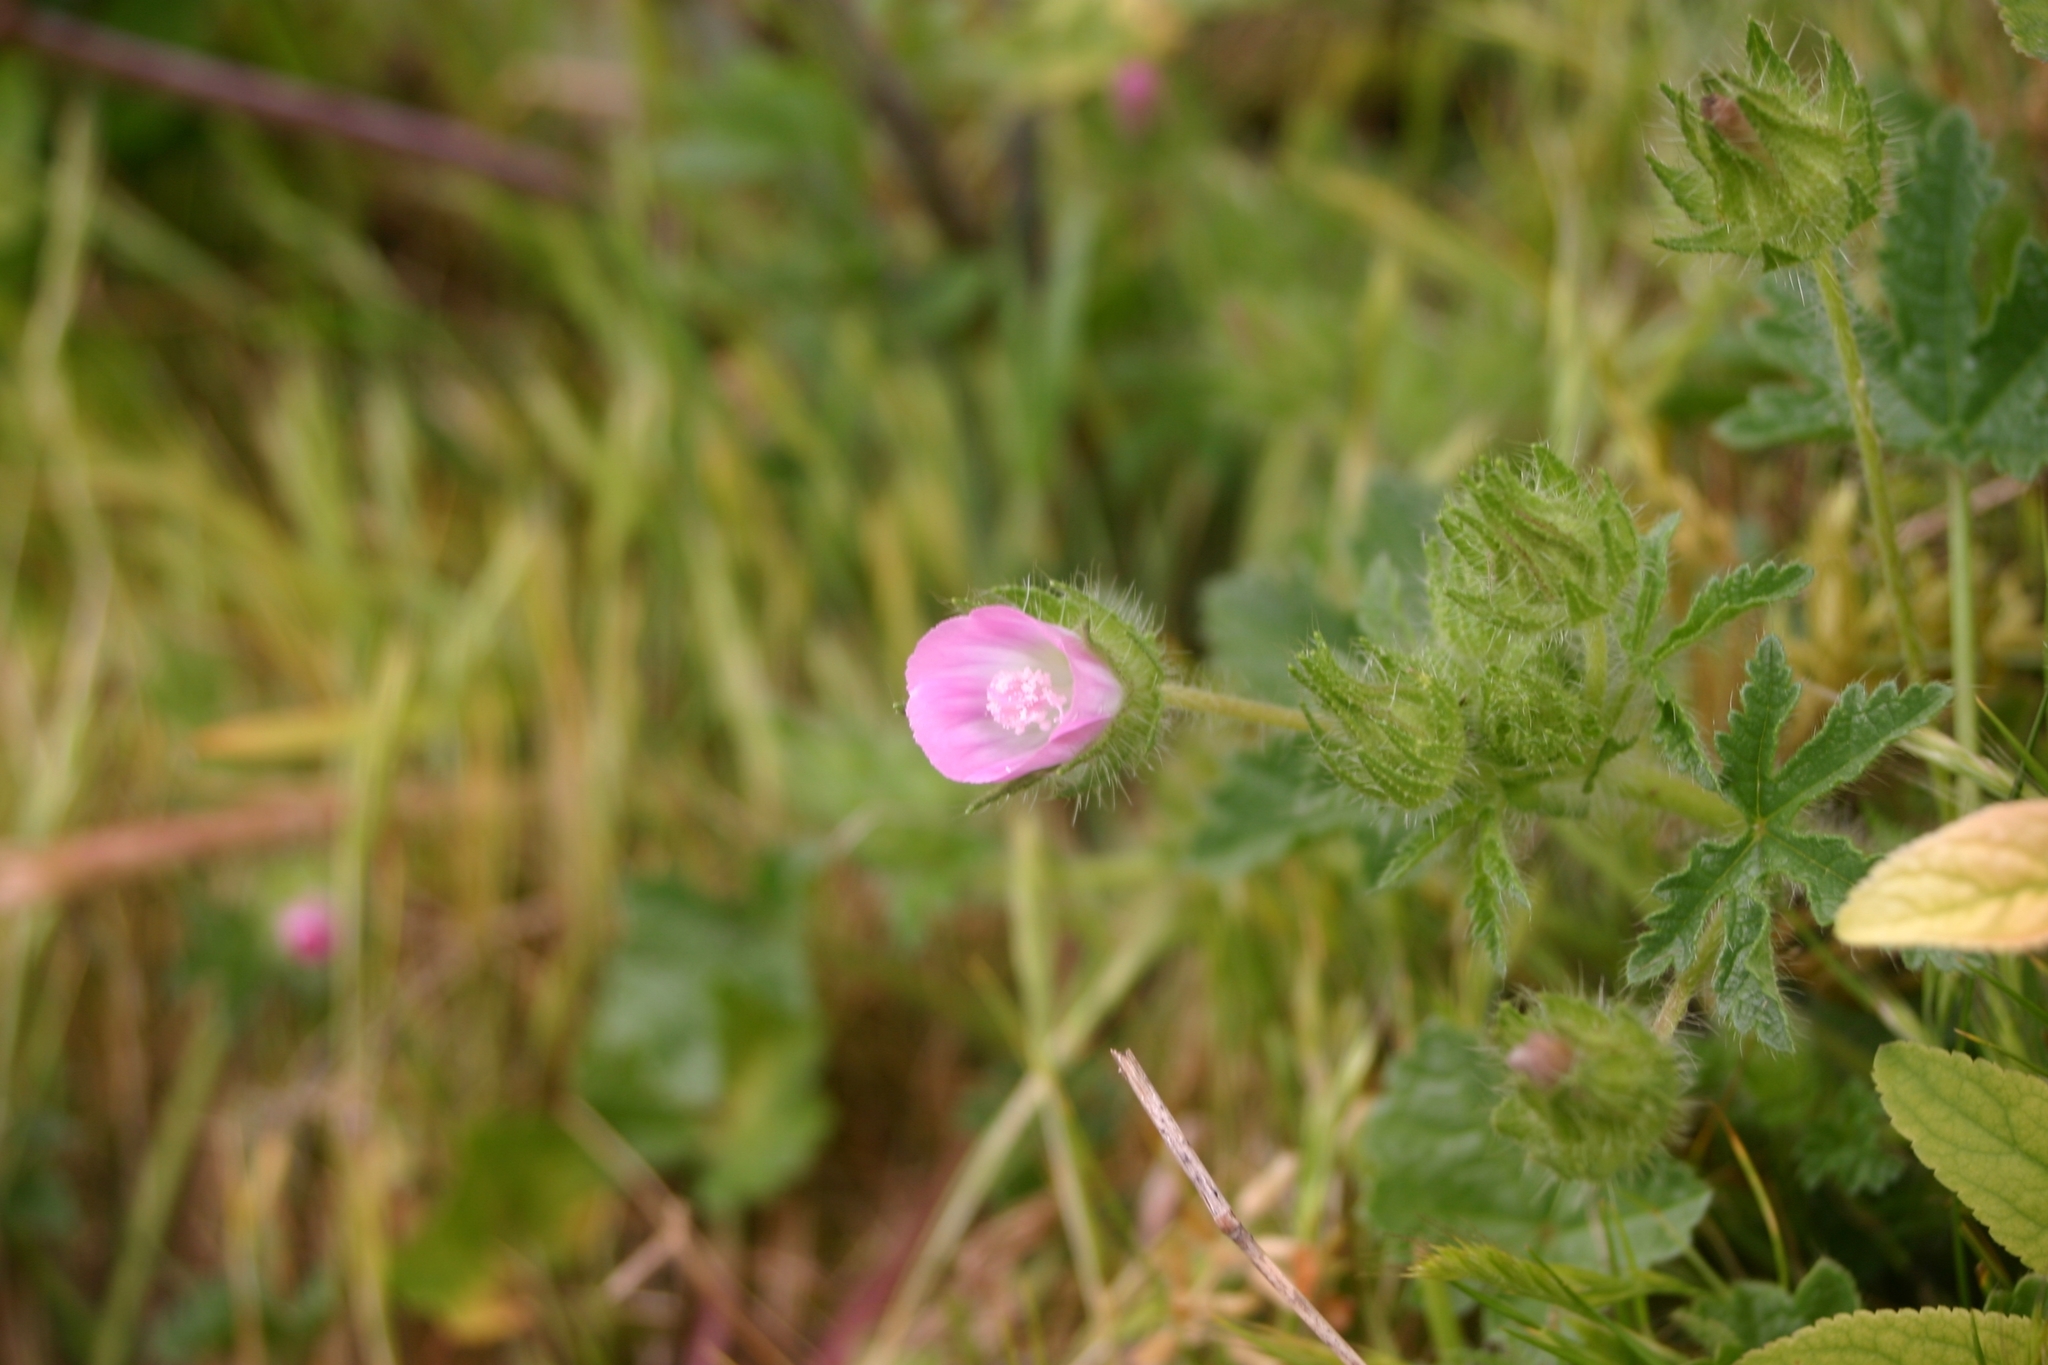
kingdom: Plantae
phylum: Tracheophyta
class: Magnoliopsida
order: Malvales
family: Malvaceae
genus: Althaea
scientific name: Althaea hirsuta
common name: Rough marsh-mallow
